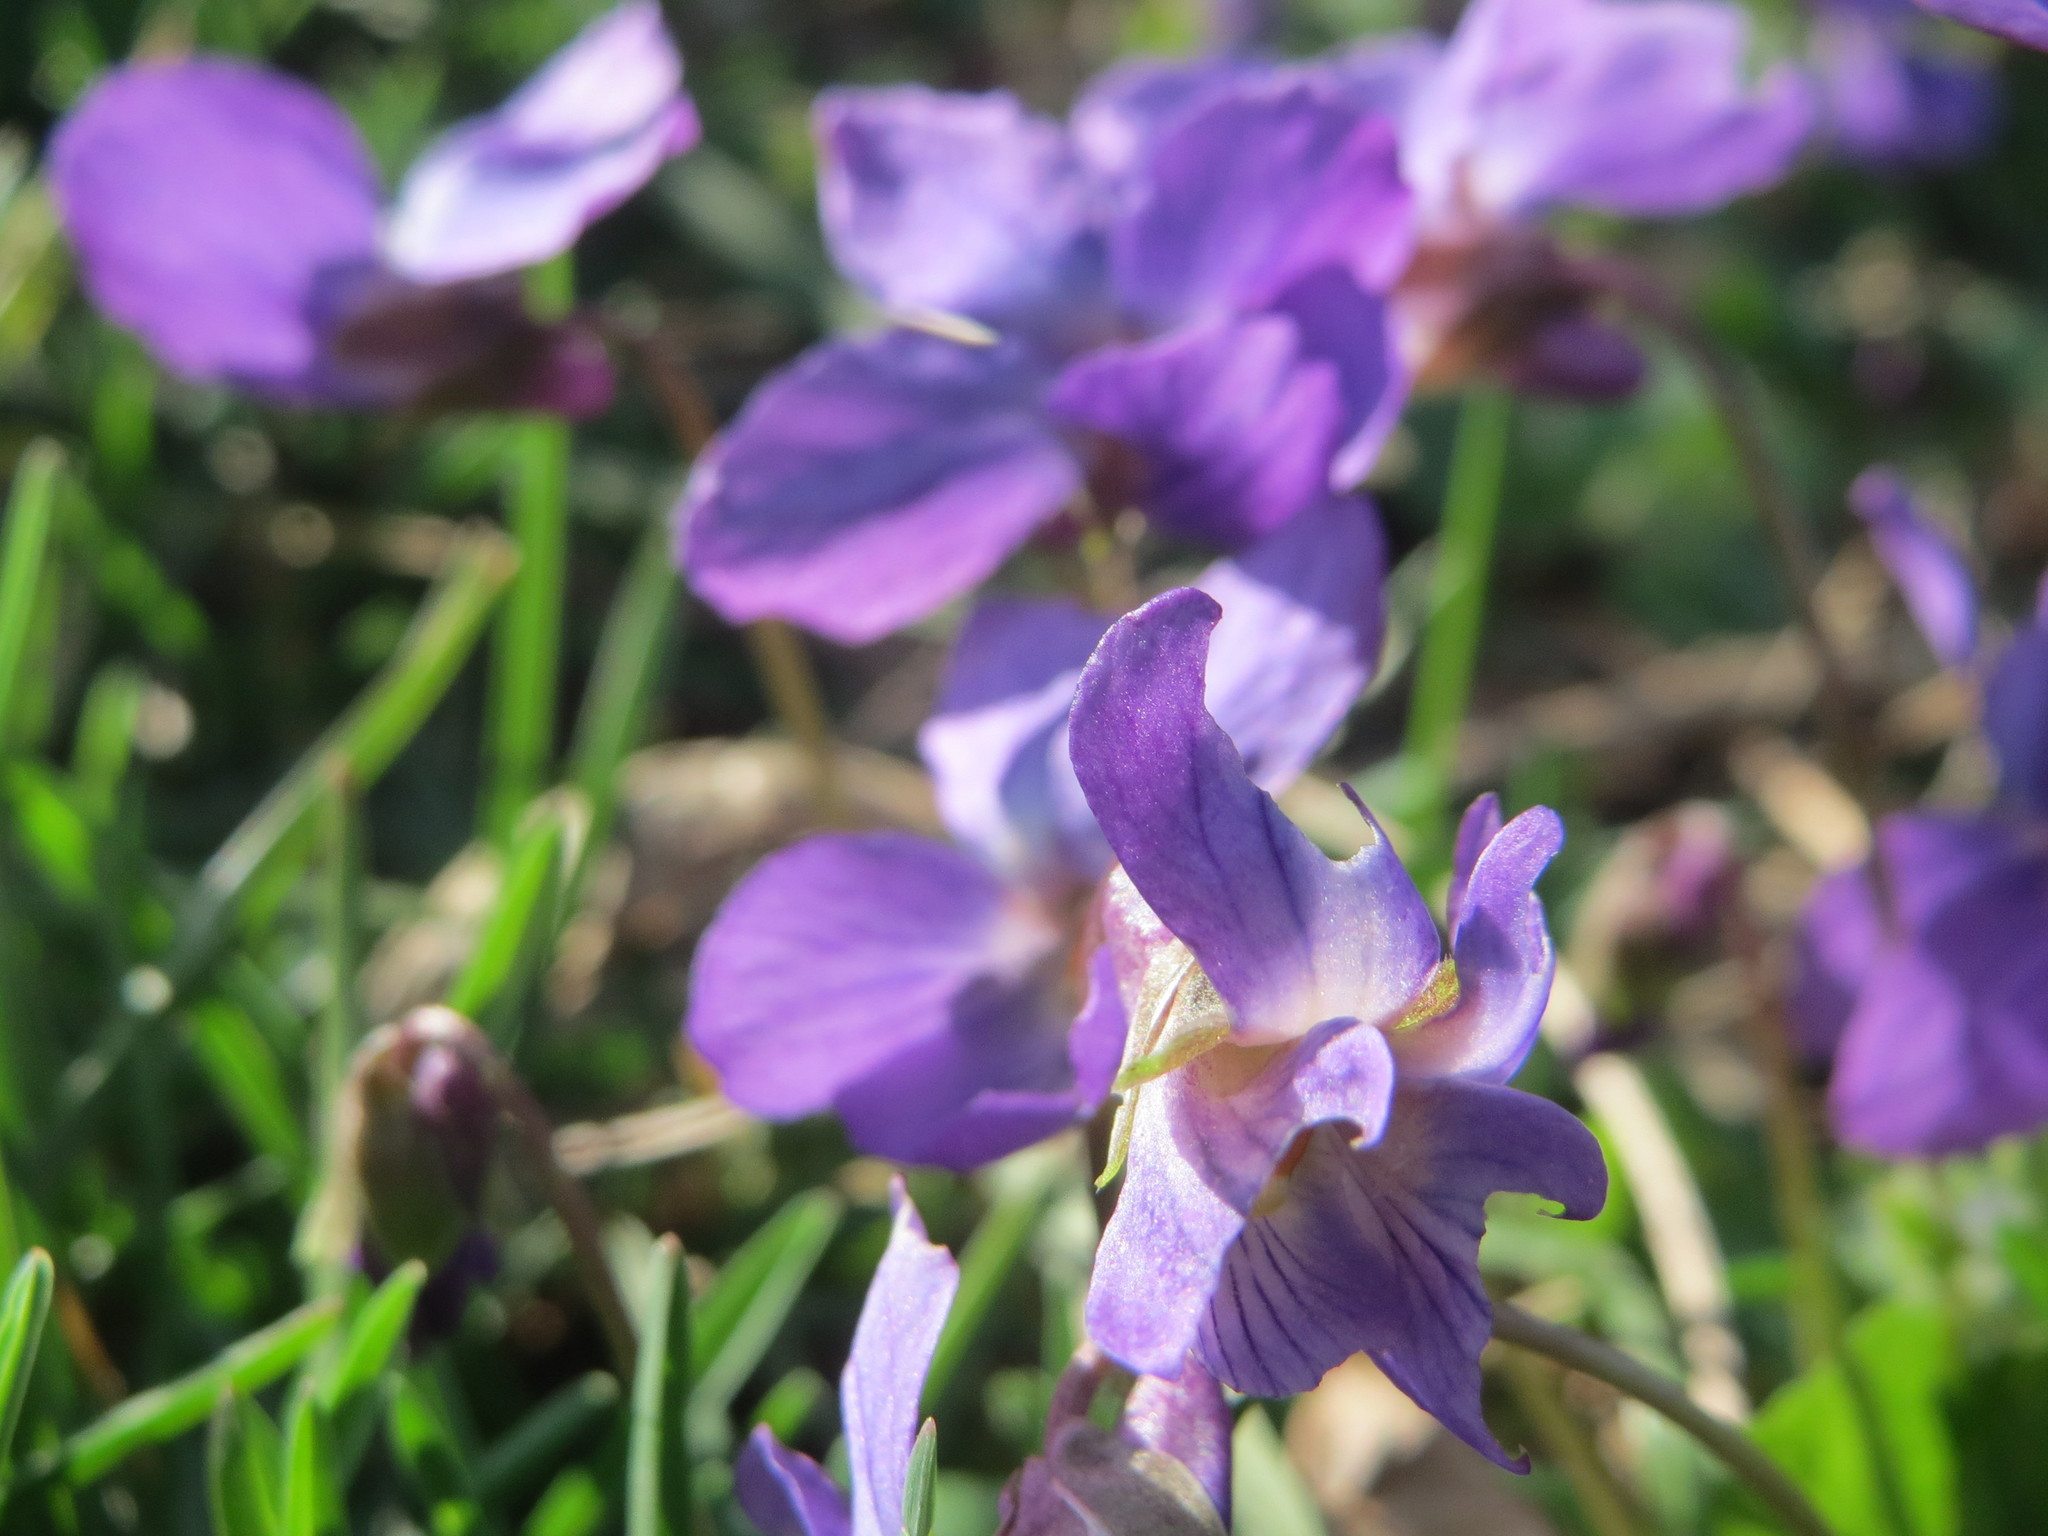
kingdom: Plantae
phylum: Tracheophyta
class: Magnoliopsida
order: Malpighiales
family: Violaceae
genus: Viola
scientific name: Viola odorata
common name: Sweet violet
